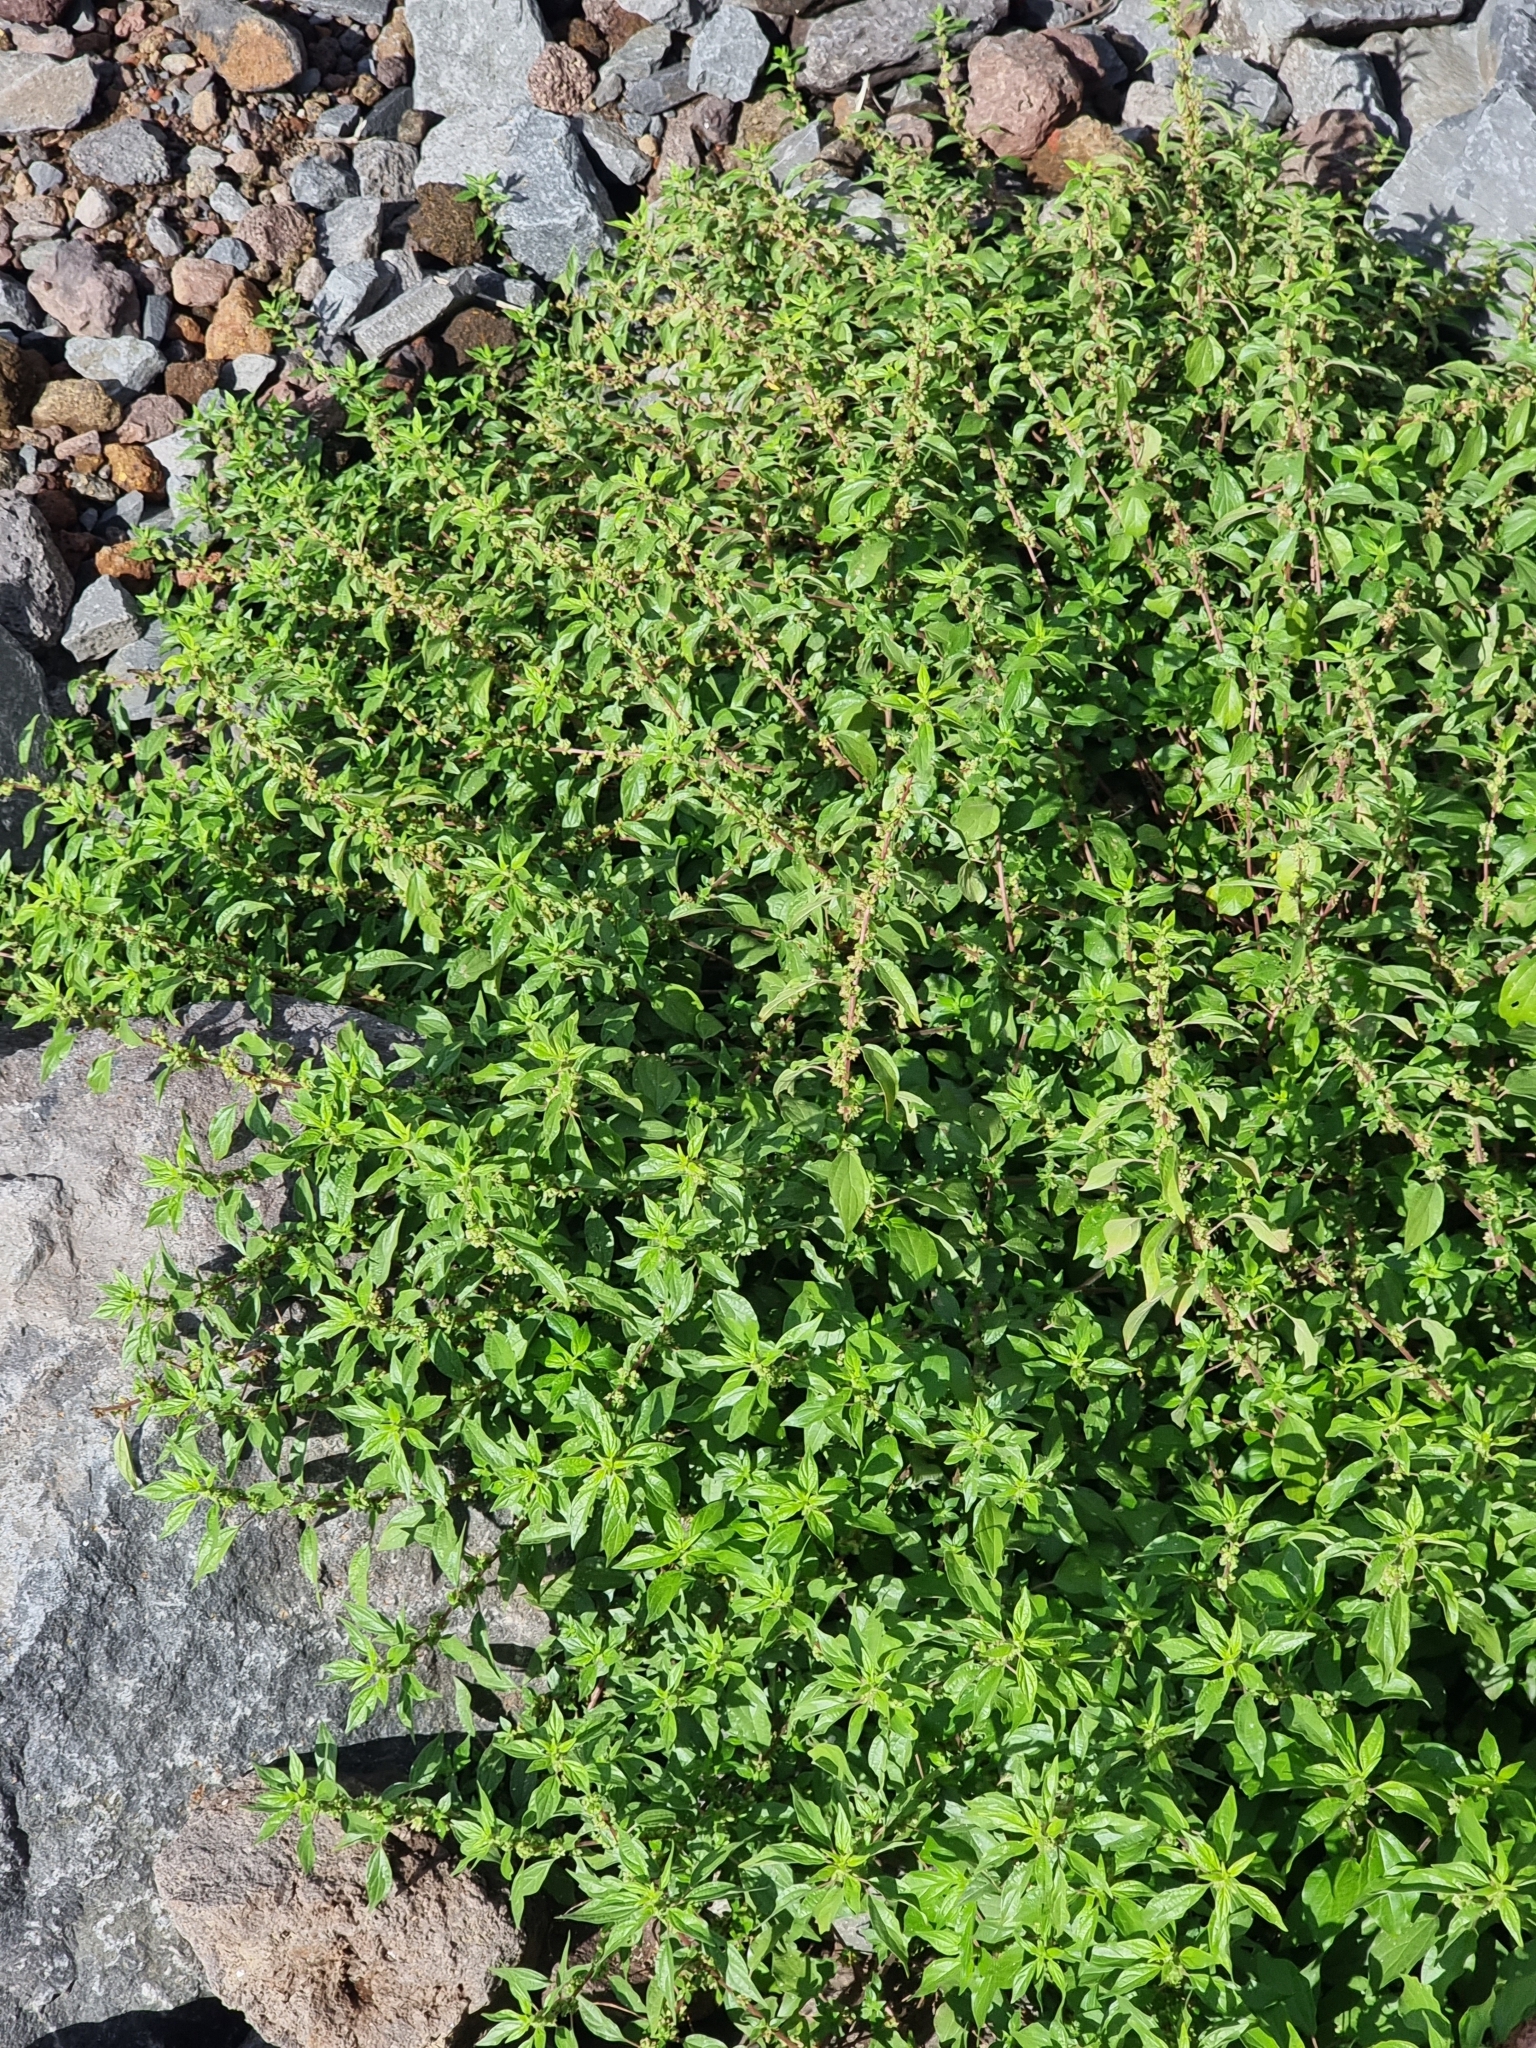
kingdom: Plantae
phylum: Tracheophyta
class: Magnoliopsida
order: Rosales
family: Urticaceae
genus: Parietaria
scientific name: Parietaria judaica
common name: Pellitory-of-the-wall
